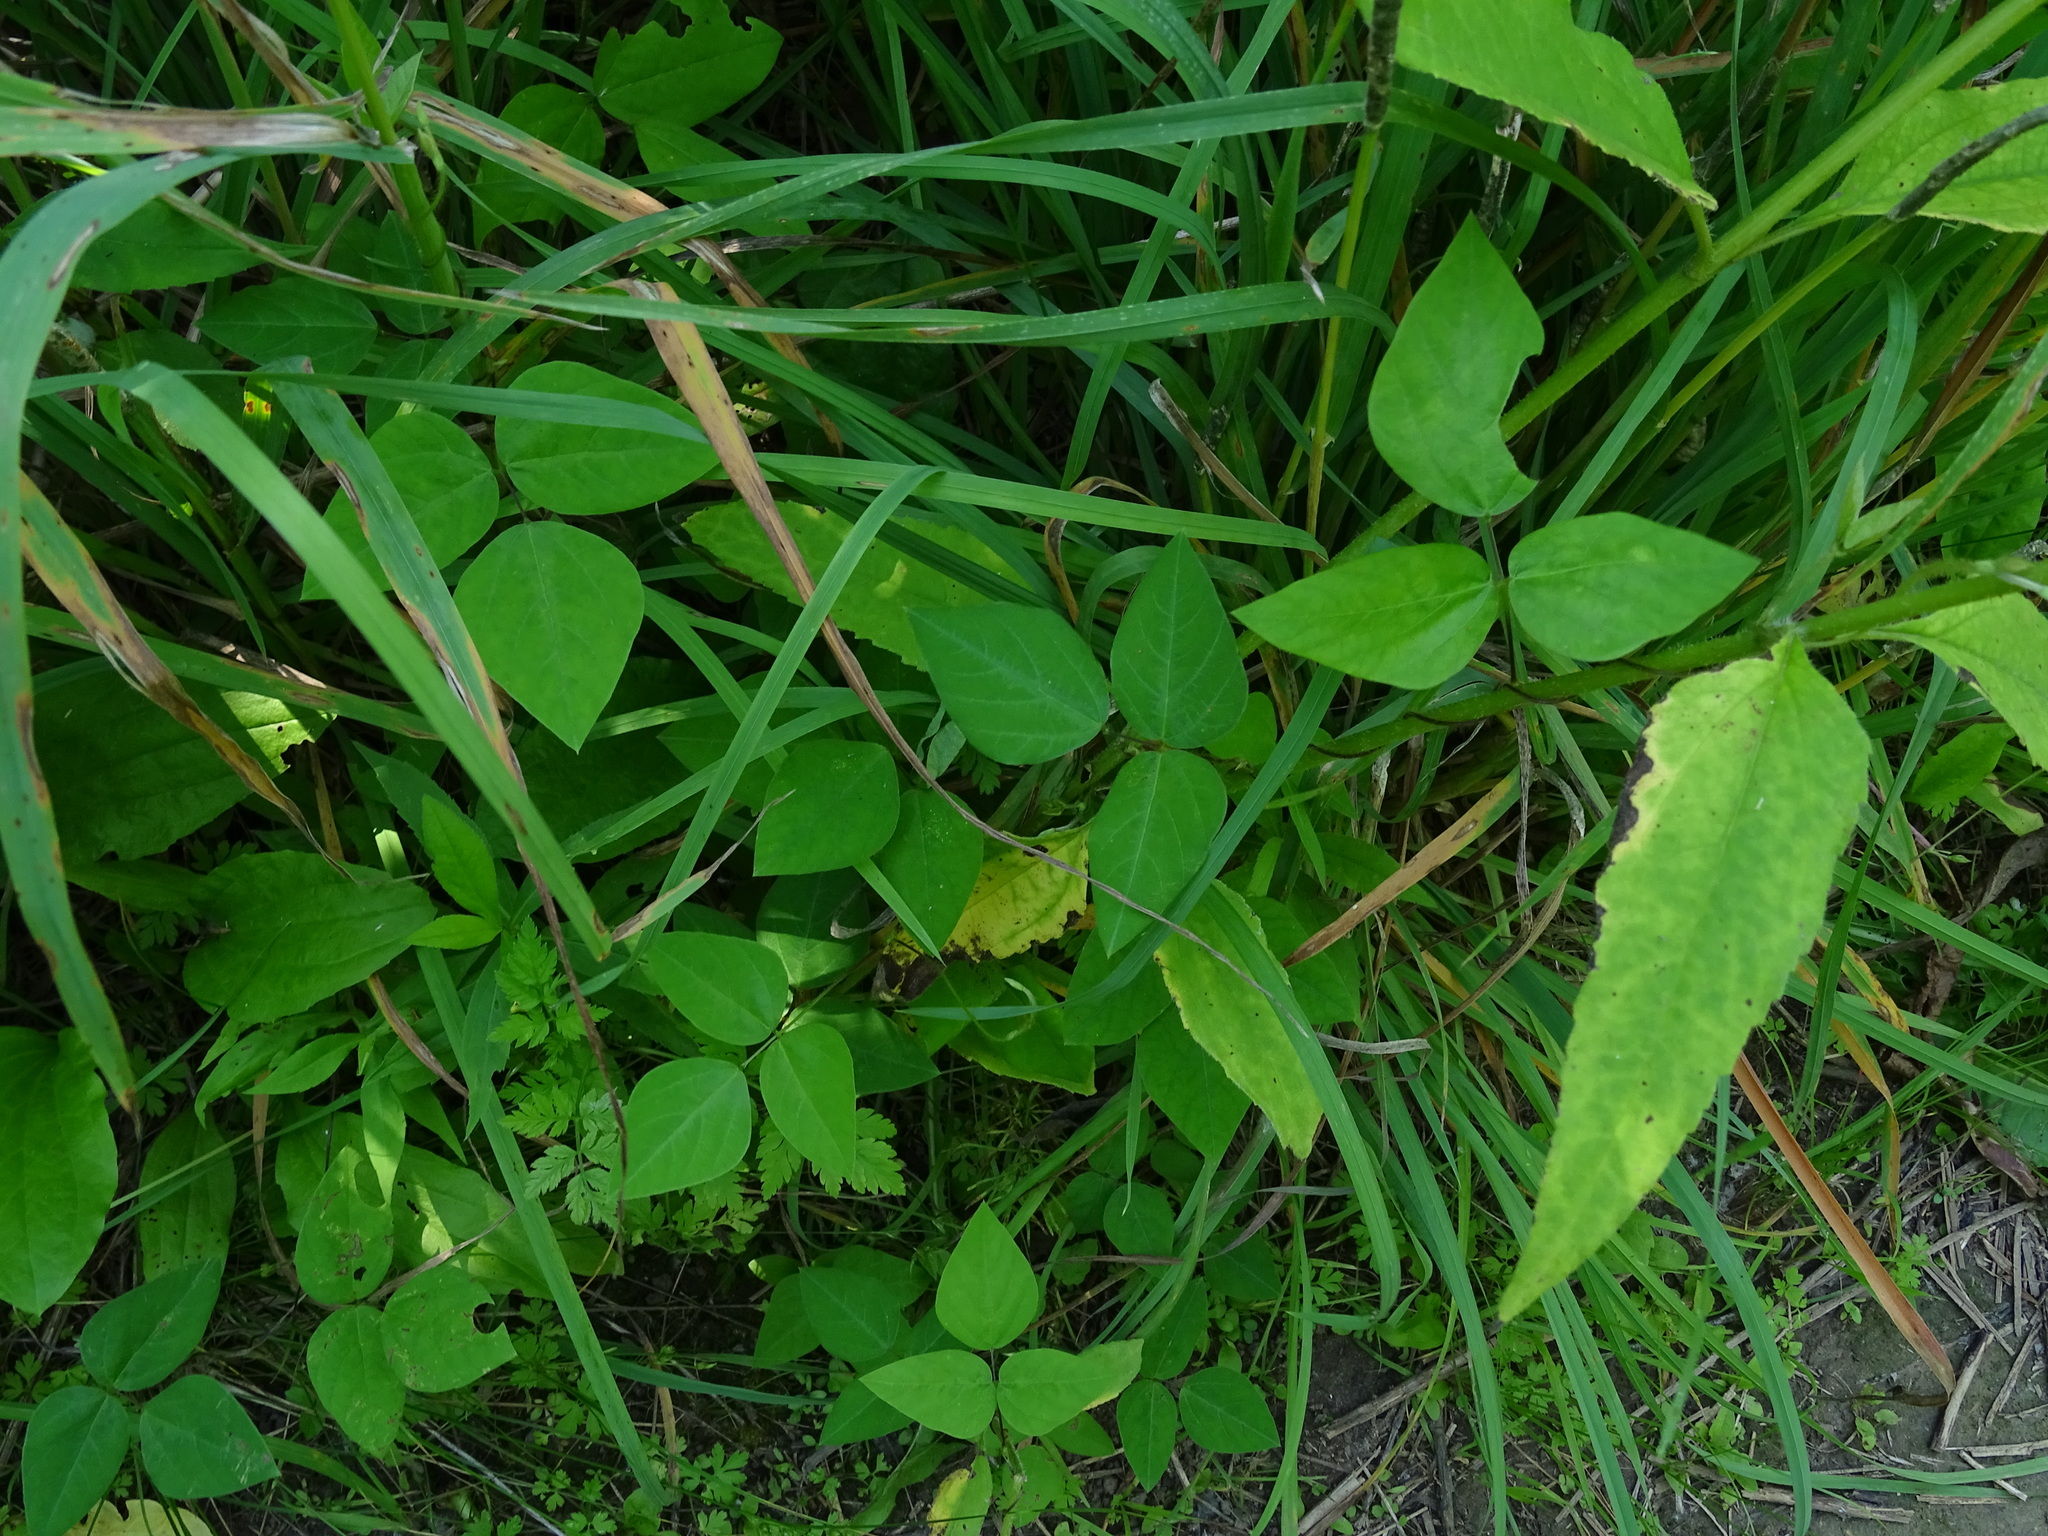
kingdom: Plantae
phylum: Tracheophyta
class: Magnoliopsida
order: Fabales
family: Fabaceae
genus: Amphicarpaea
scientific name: Amphicarpaea bracteata
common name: American hog peanut
